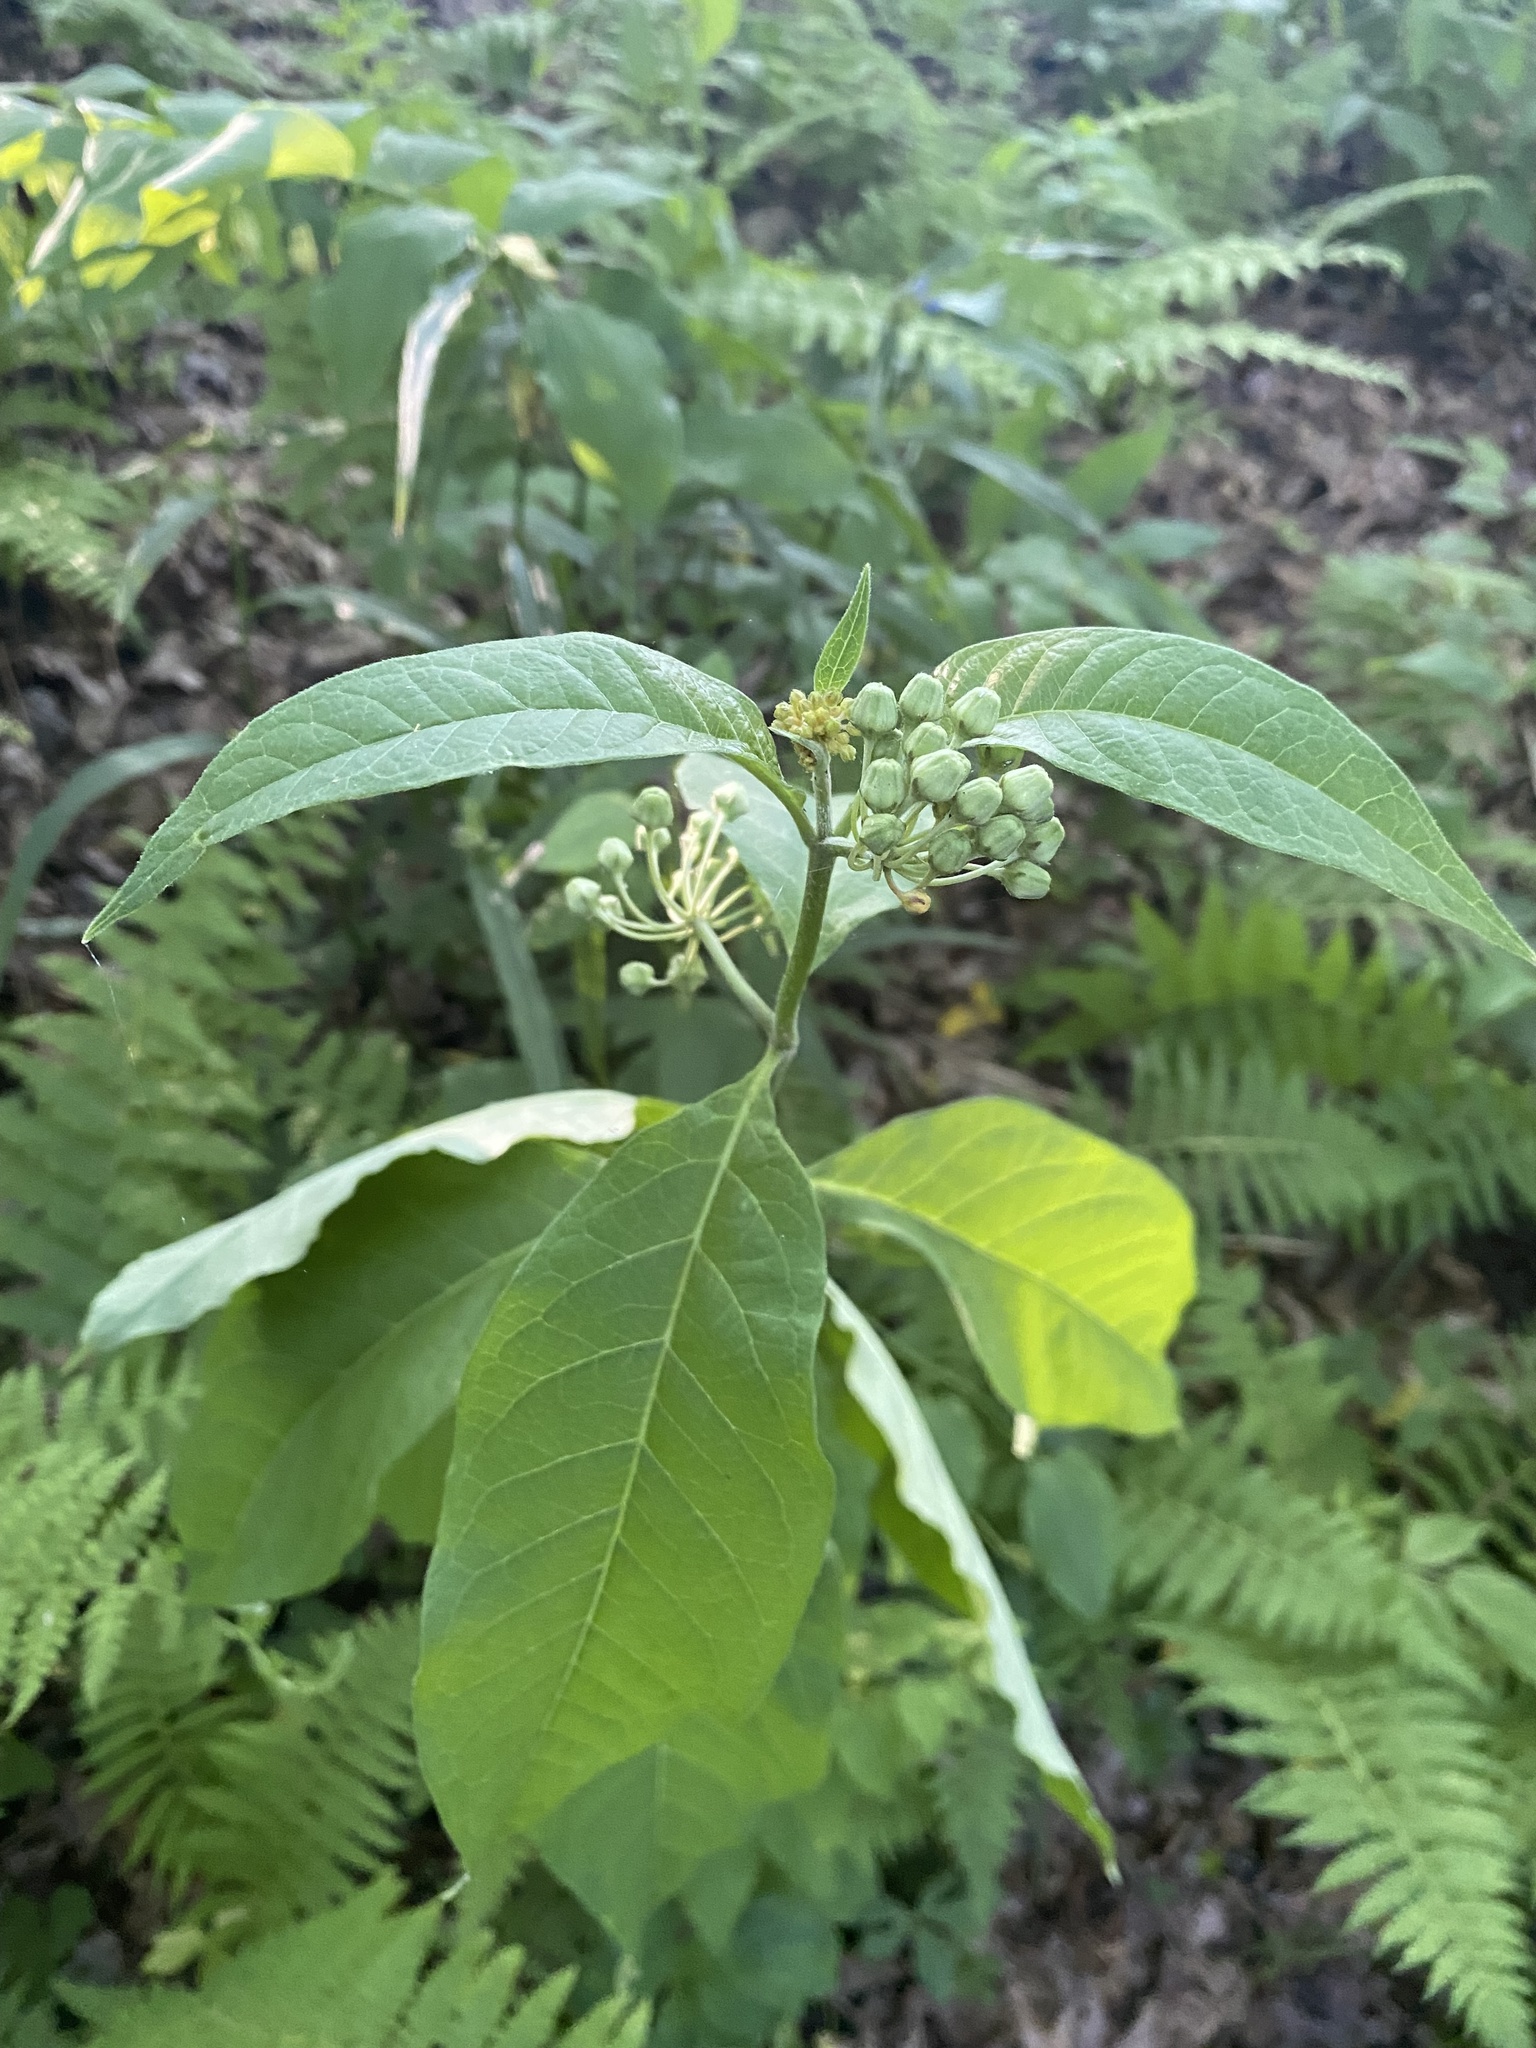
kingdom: Plantae
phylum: Tracheophyta
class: Magnoliopsida
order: Gentianales
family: Apocynaceae
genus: Asclepias
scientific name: Asclepias exaltata
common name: Poke milkweed
